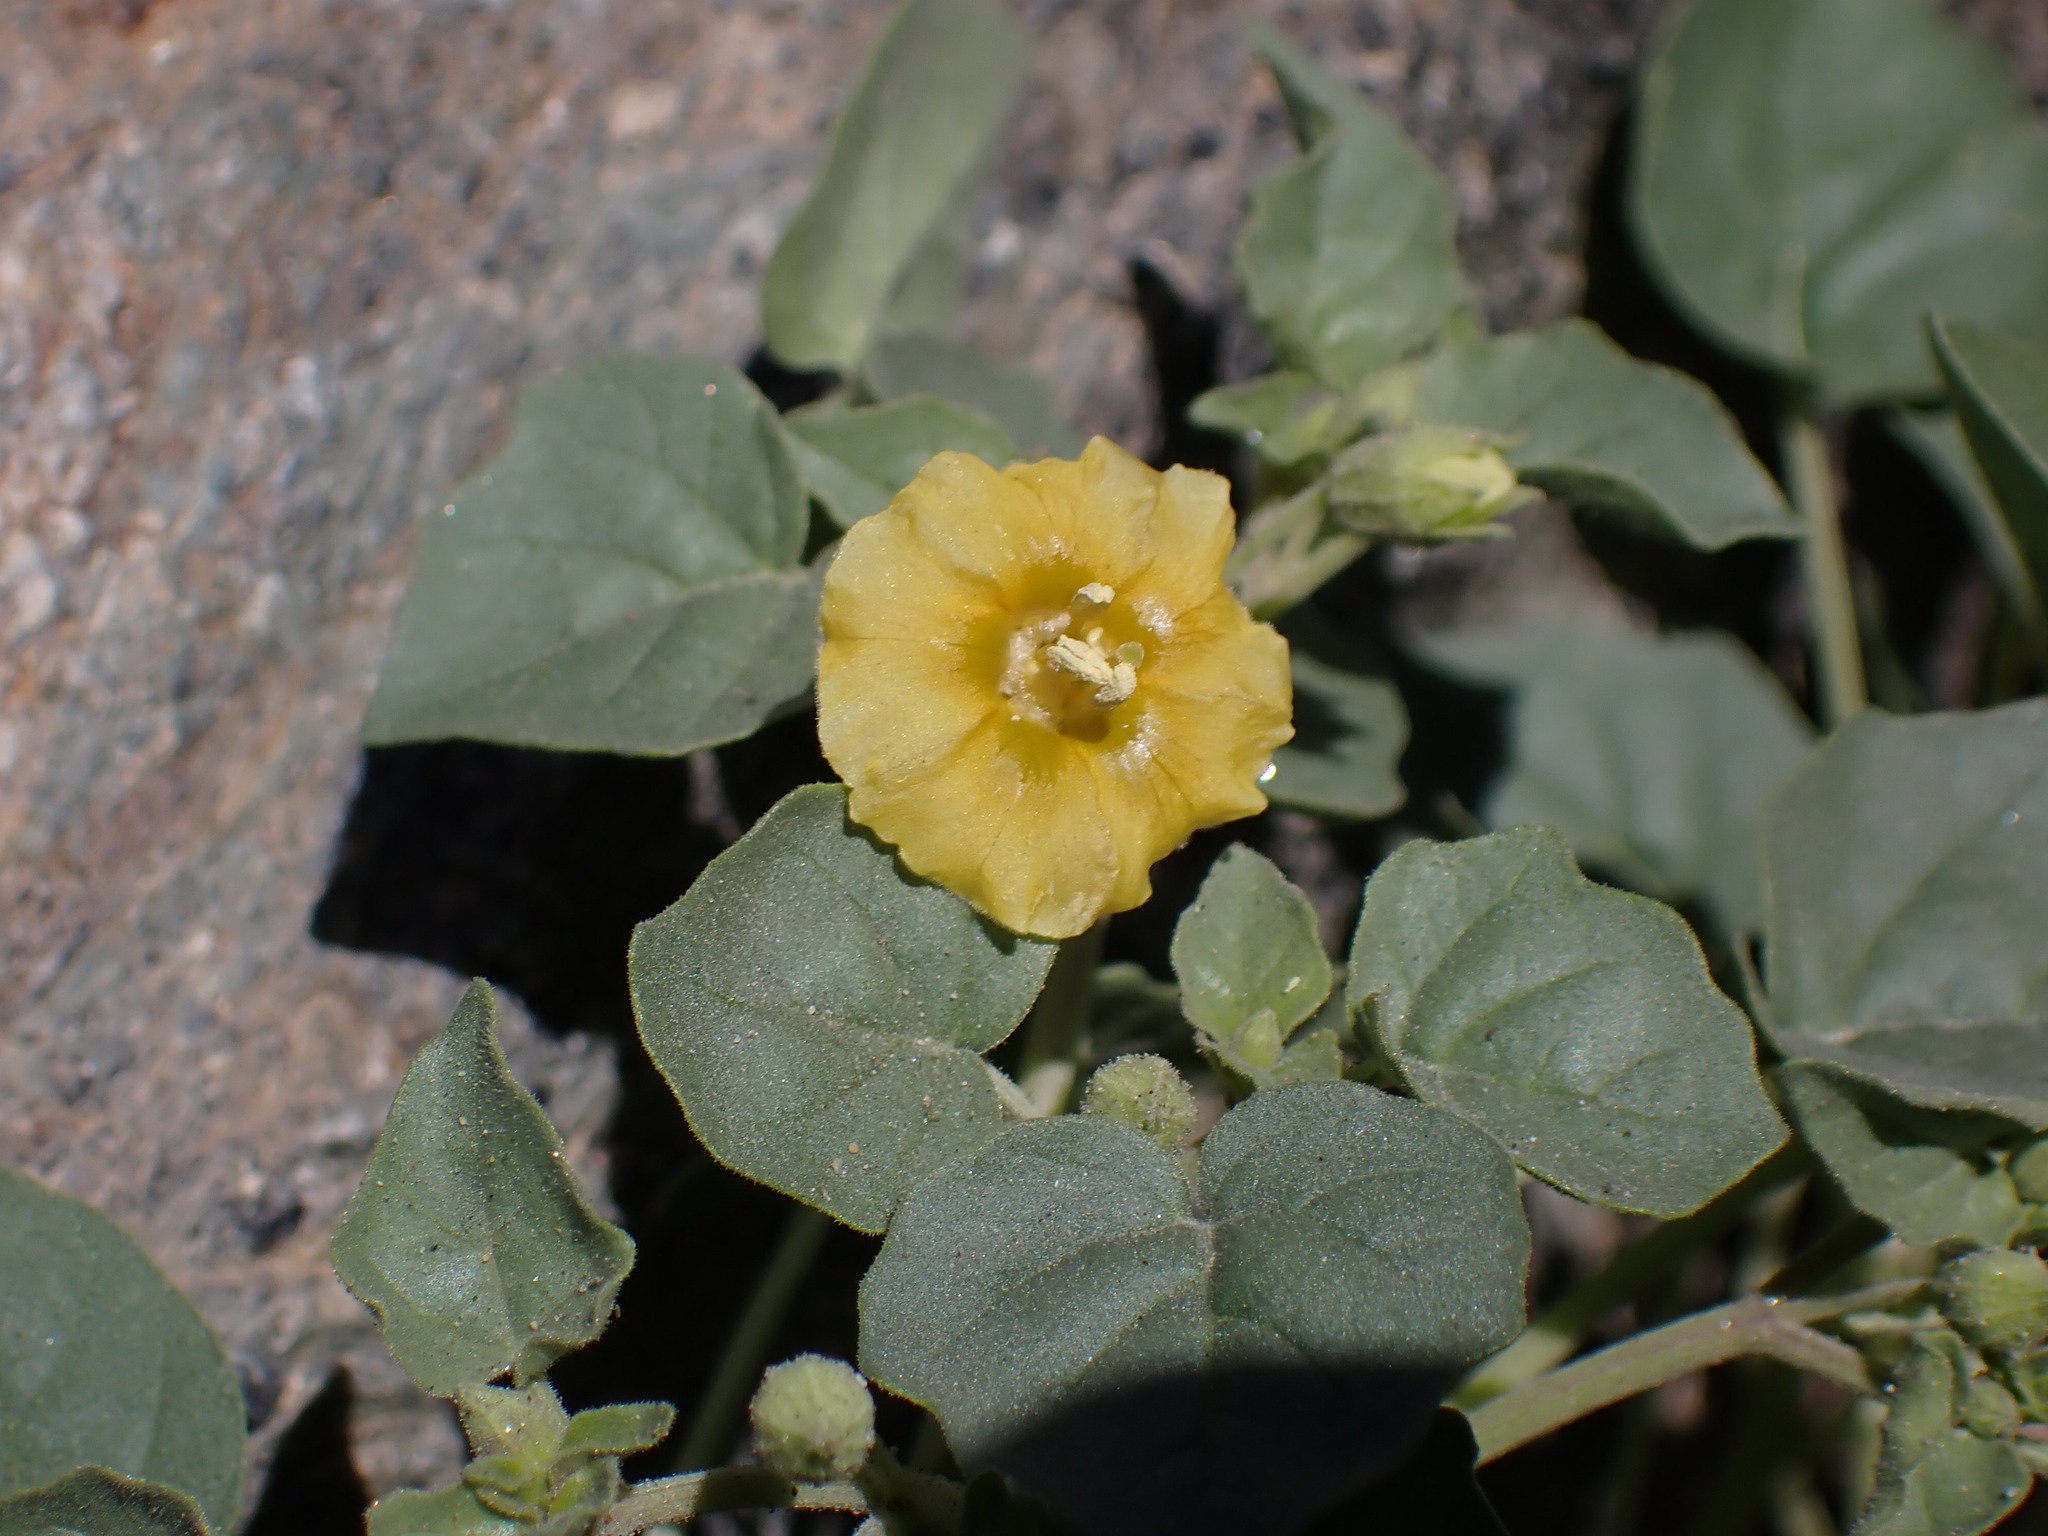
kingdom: Plantae
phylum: Tracheophyta
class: Magnoliopsida
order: Solanales
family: Solanaceae
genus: Physalis
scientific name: Physalis crassifolia
